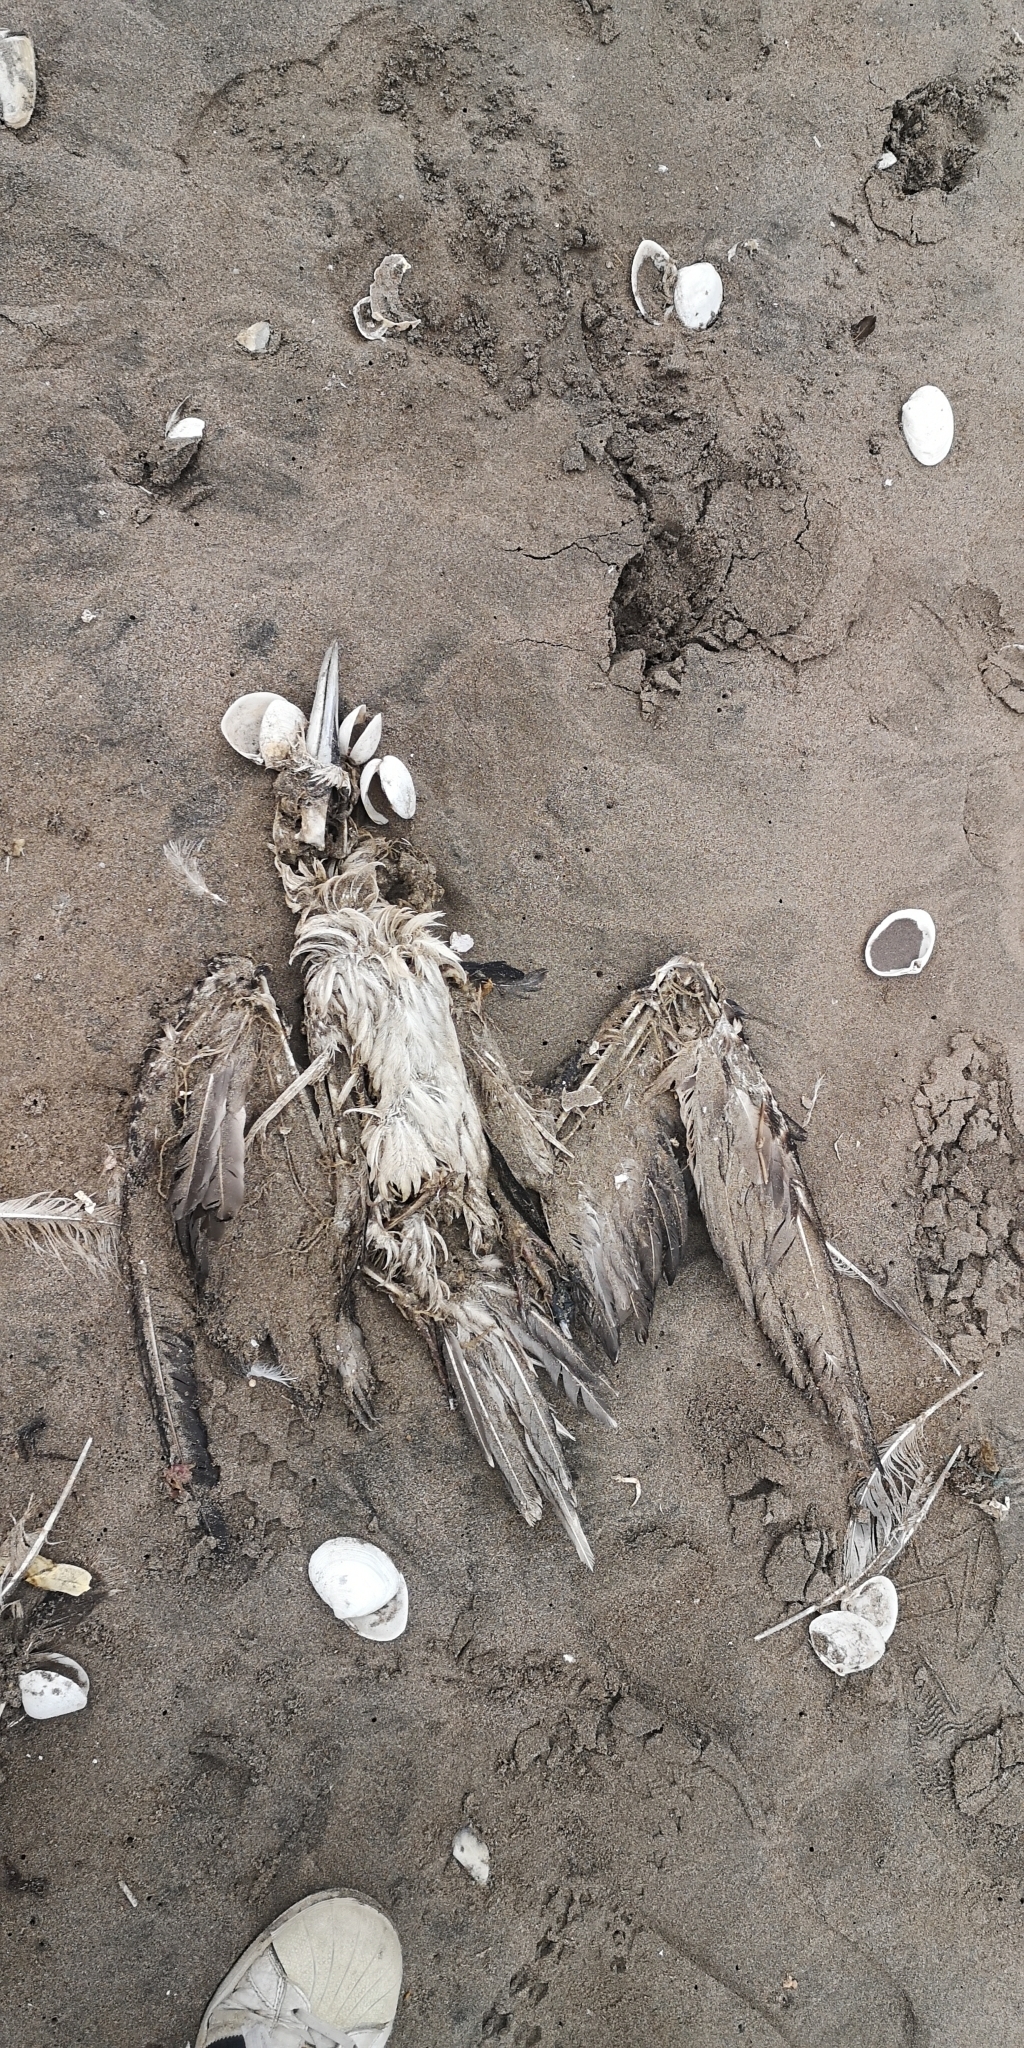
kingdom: Animalia
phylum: Chordata
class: Aves
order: Suliformes
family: Sulidae
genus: Sula
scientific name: Sula variegata
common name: Peruvian booby
